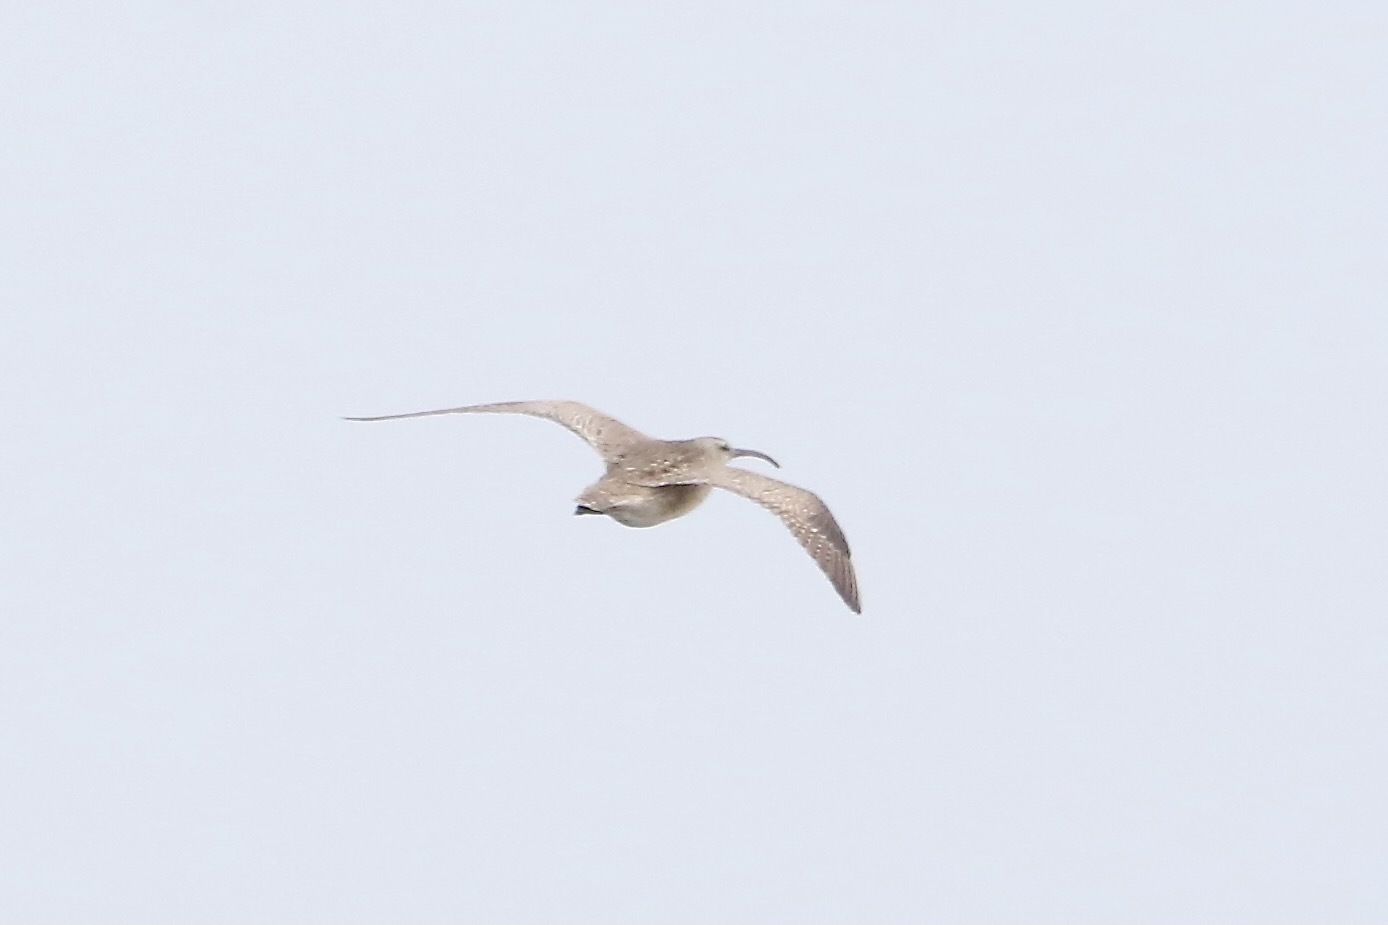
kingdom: Animalia
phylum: Chordata
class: Aves
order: Charadriiformes
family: Scolopacidae
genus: Numenius
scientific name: Numenius phaeopus
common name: Whimbrel
